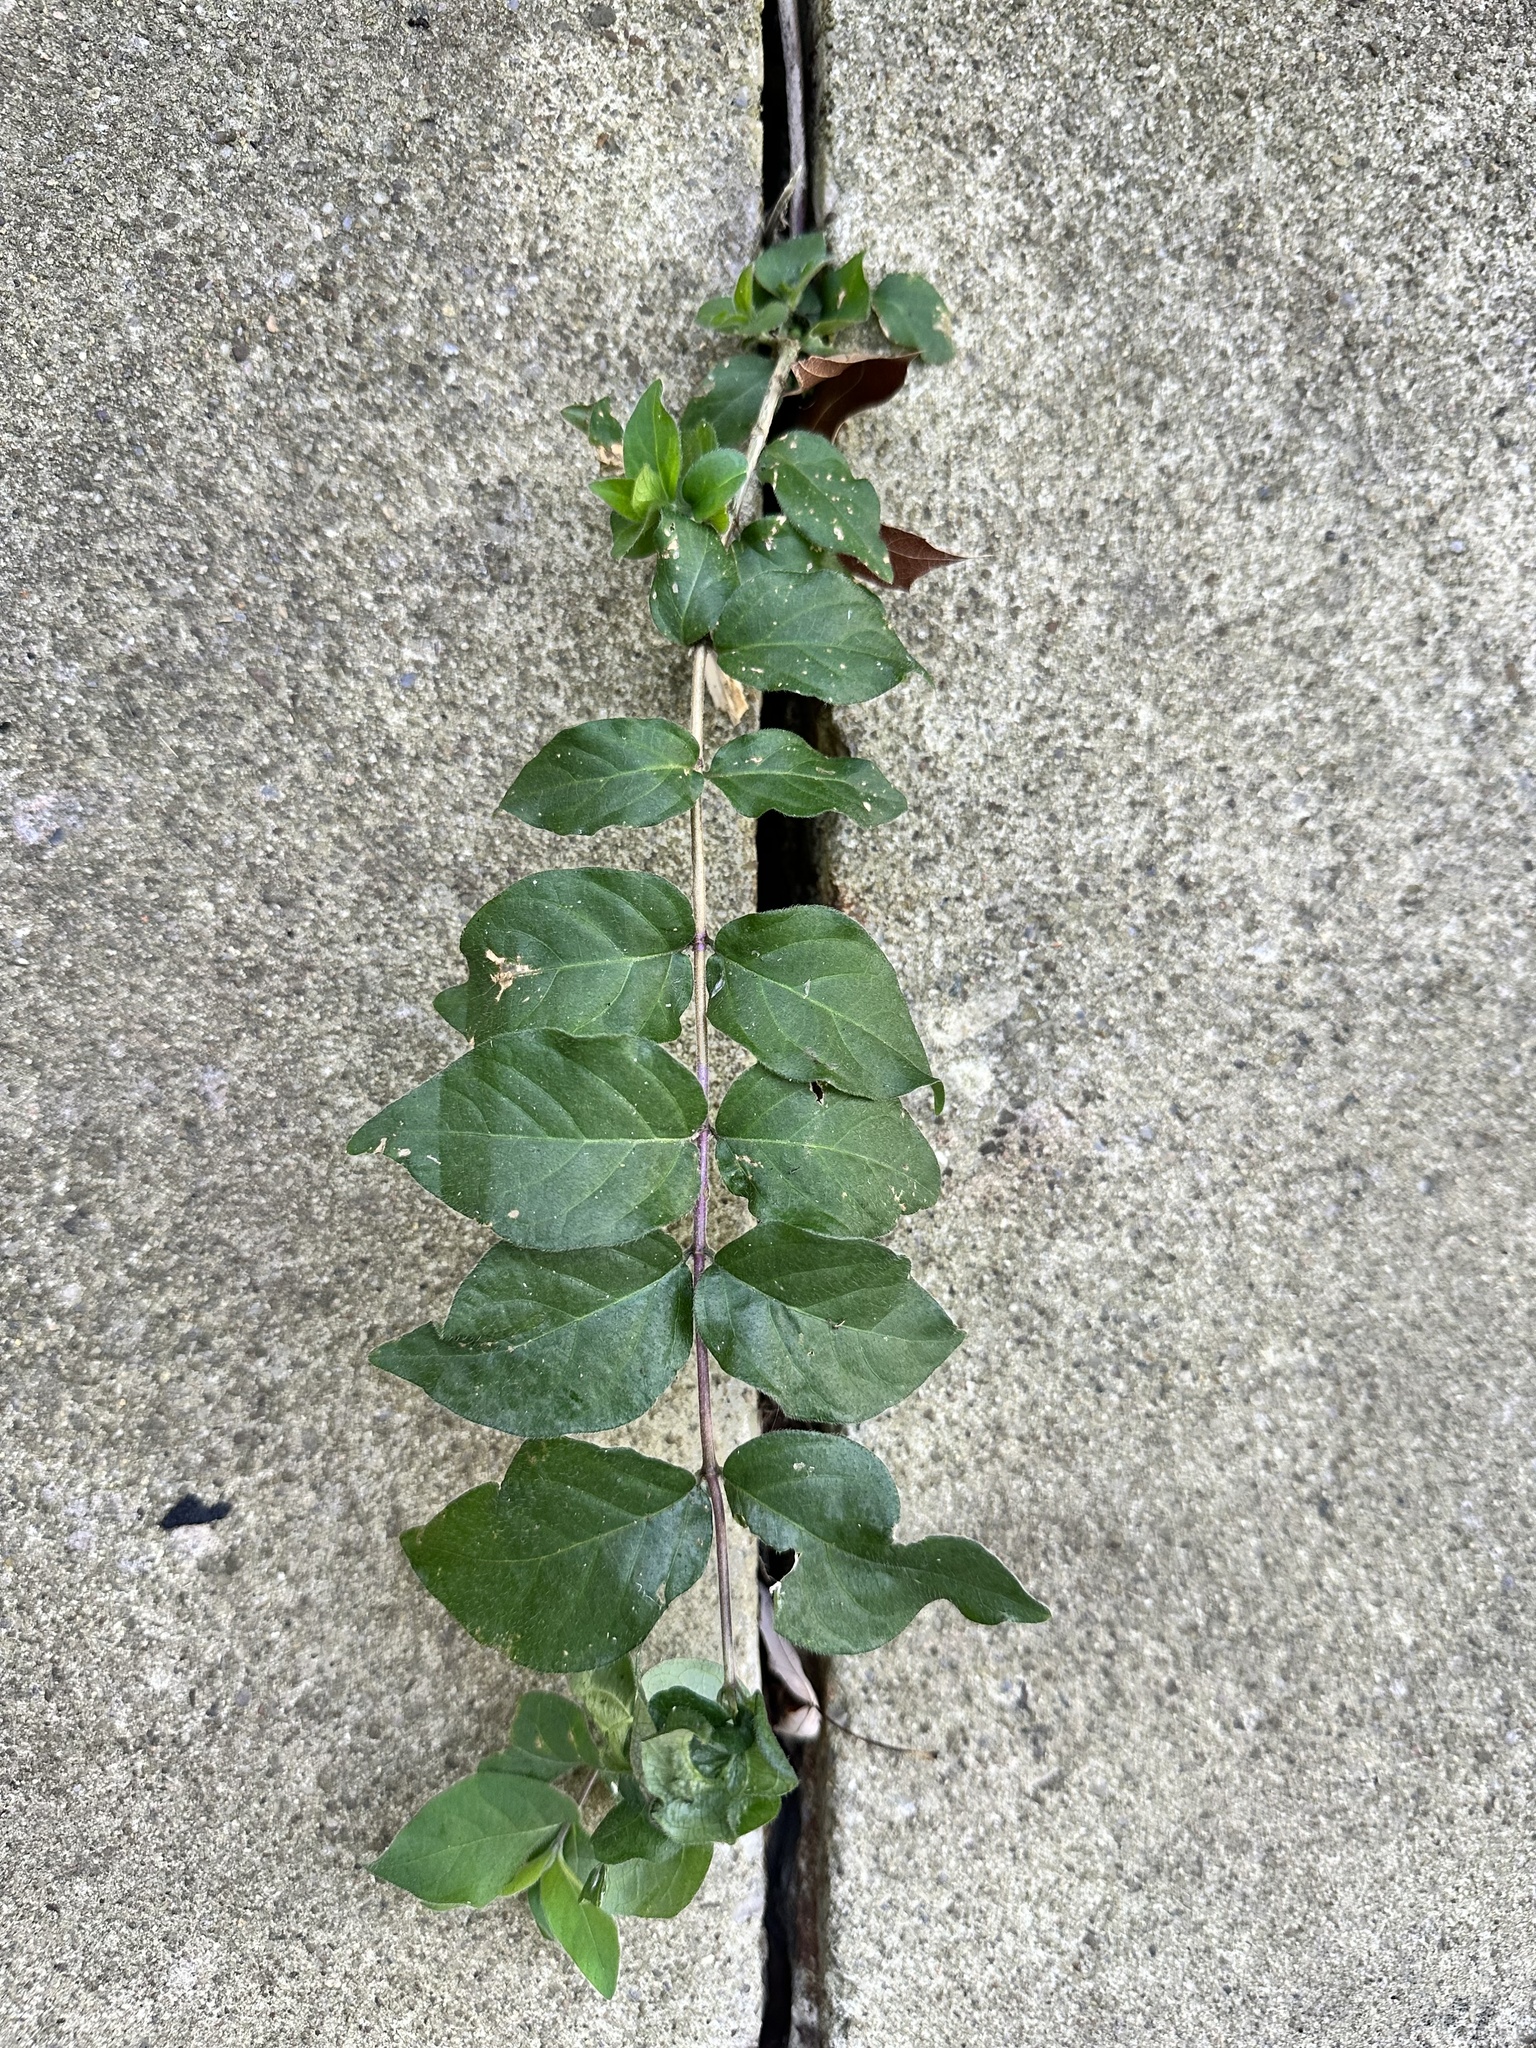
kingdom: Plantae
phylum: Tracheophyta
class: Magnoliopsida
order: Dipsacales
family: Caprifoliaceae
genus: Lonicera
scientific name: Lonicera maackii
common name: Amur honeysuckle
